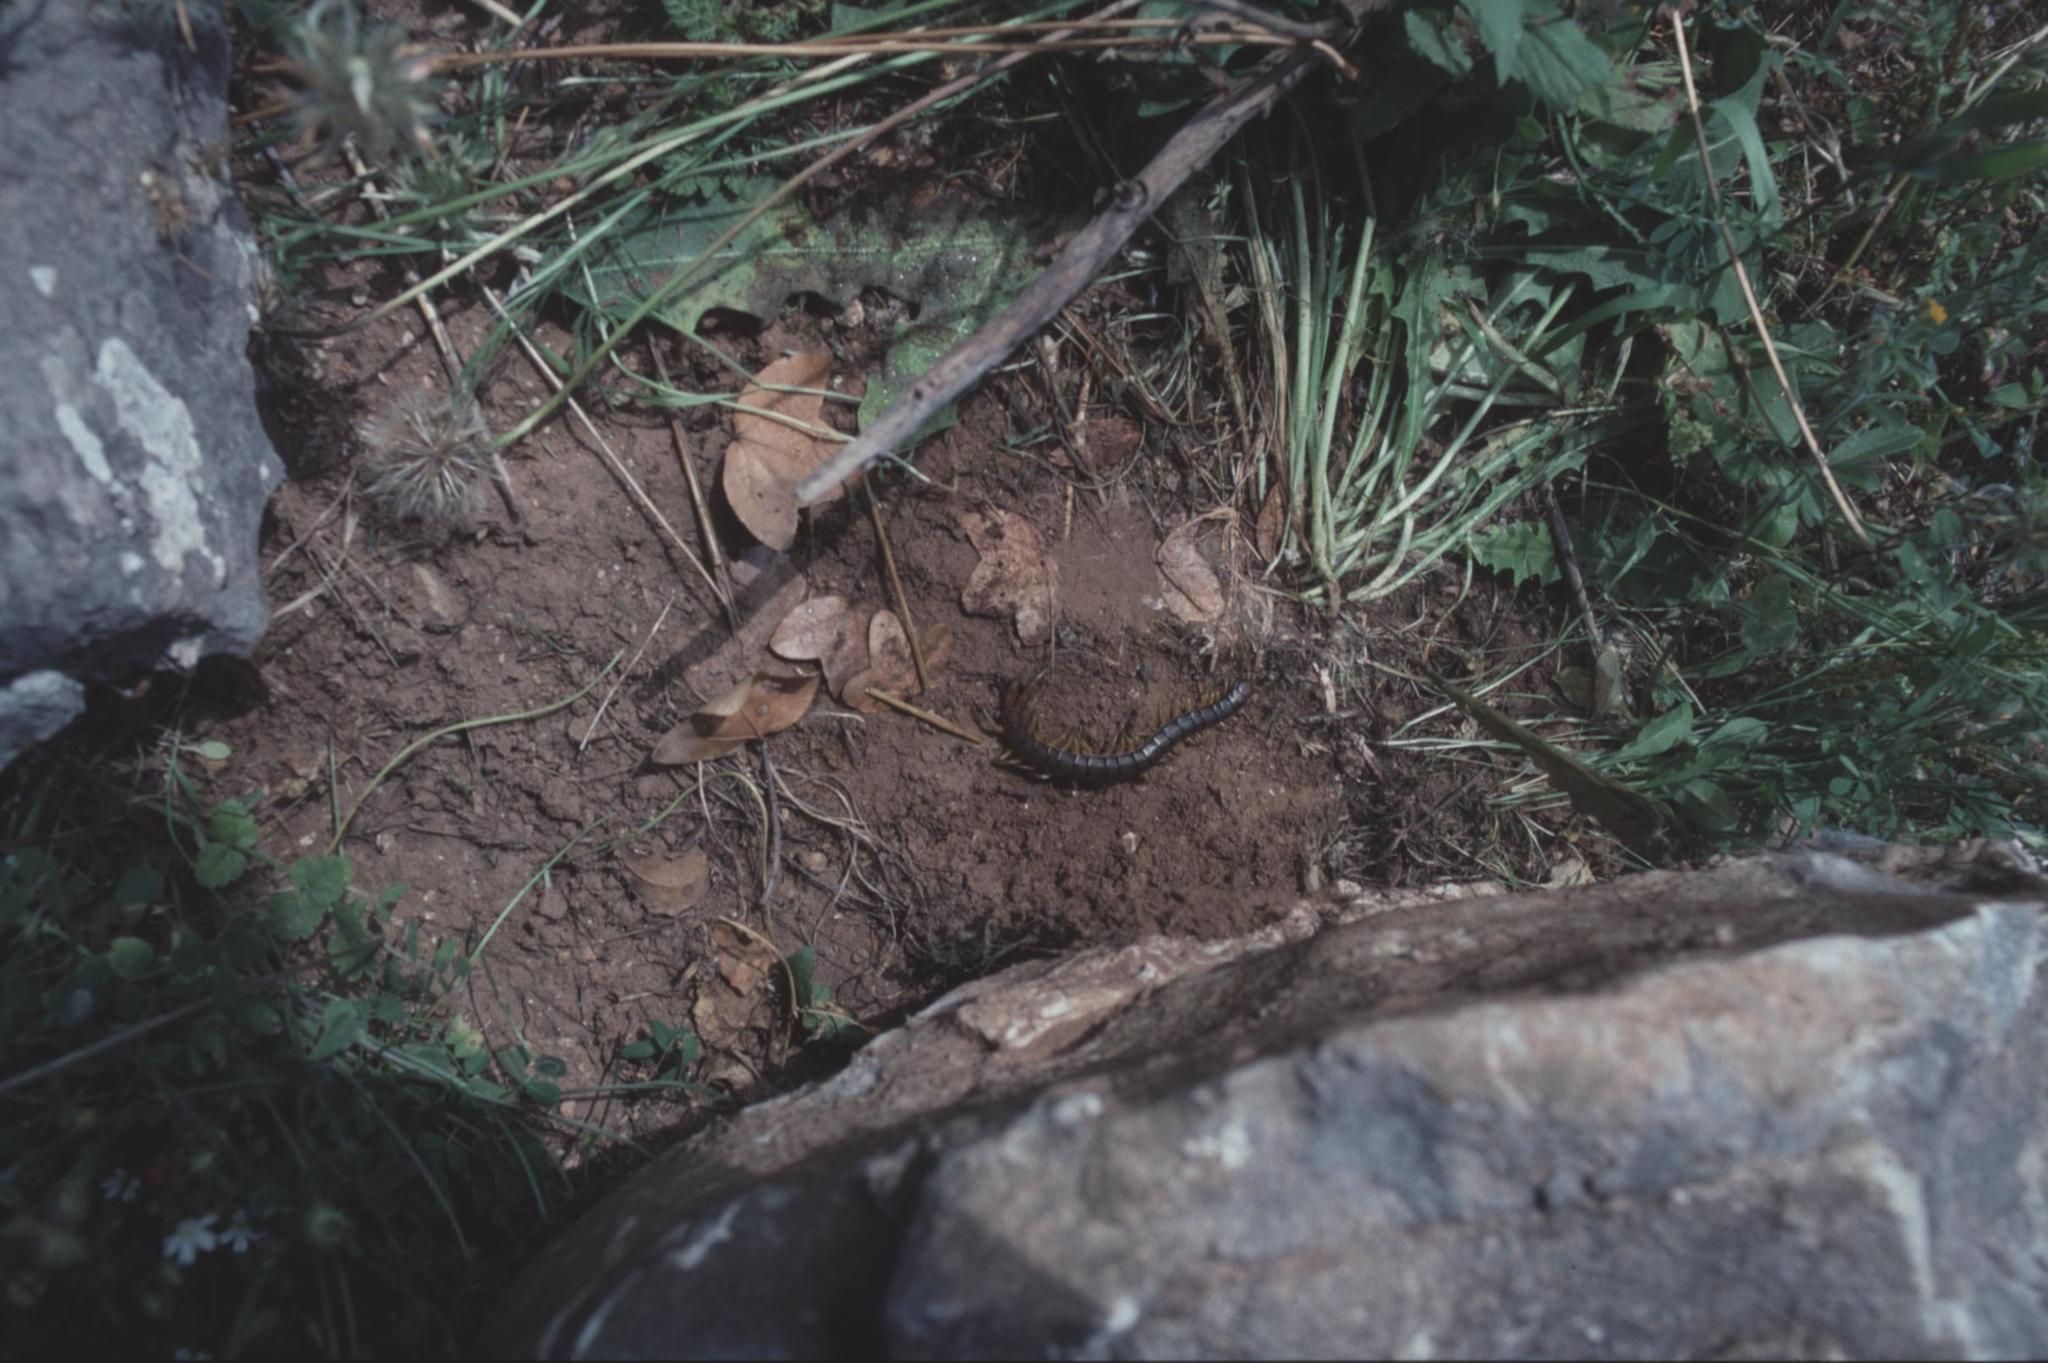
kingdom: Animalia
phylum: Arthropoda
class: Chilopoda
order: Scolopendromorpha
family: Scolopendridae
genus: Scolopendra
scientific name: Scolopendra cingulata
